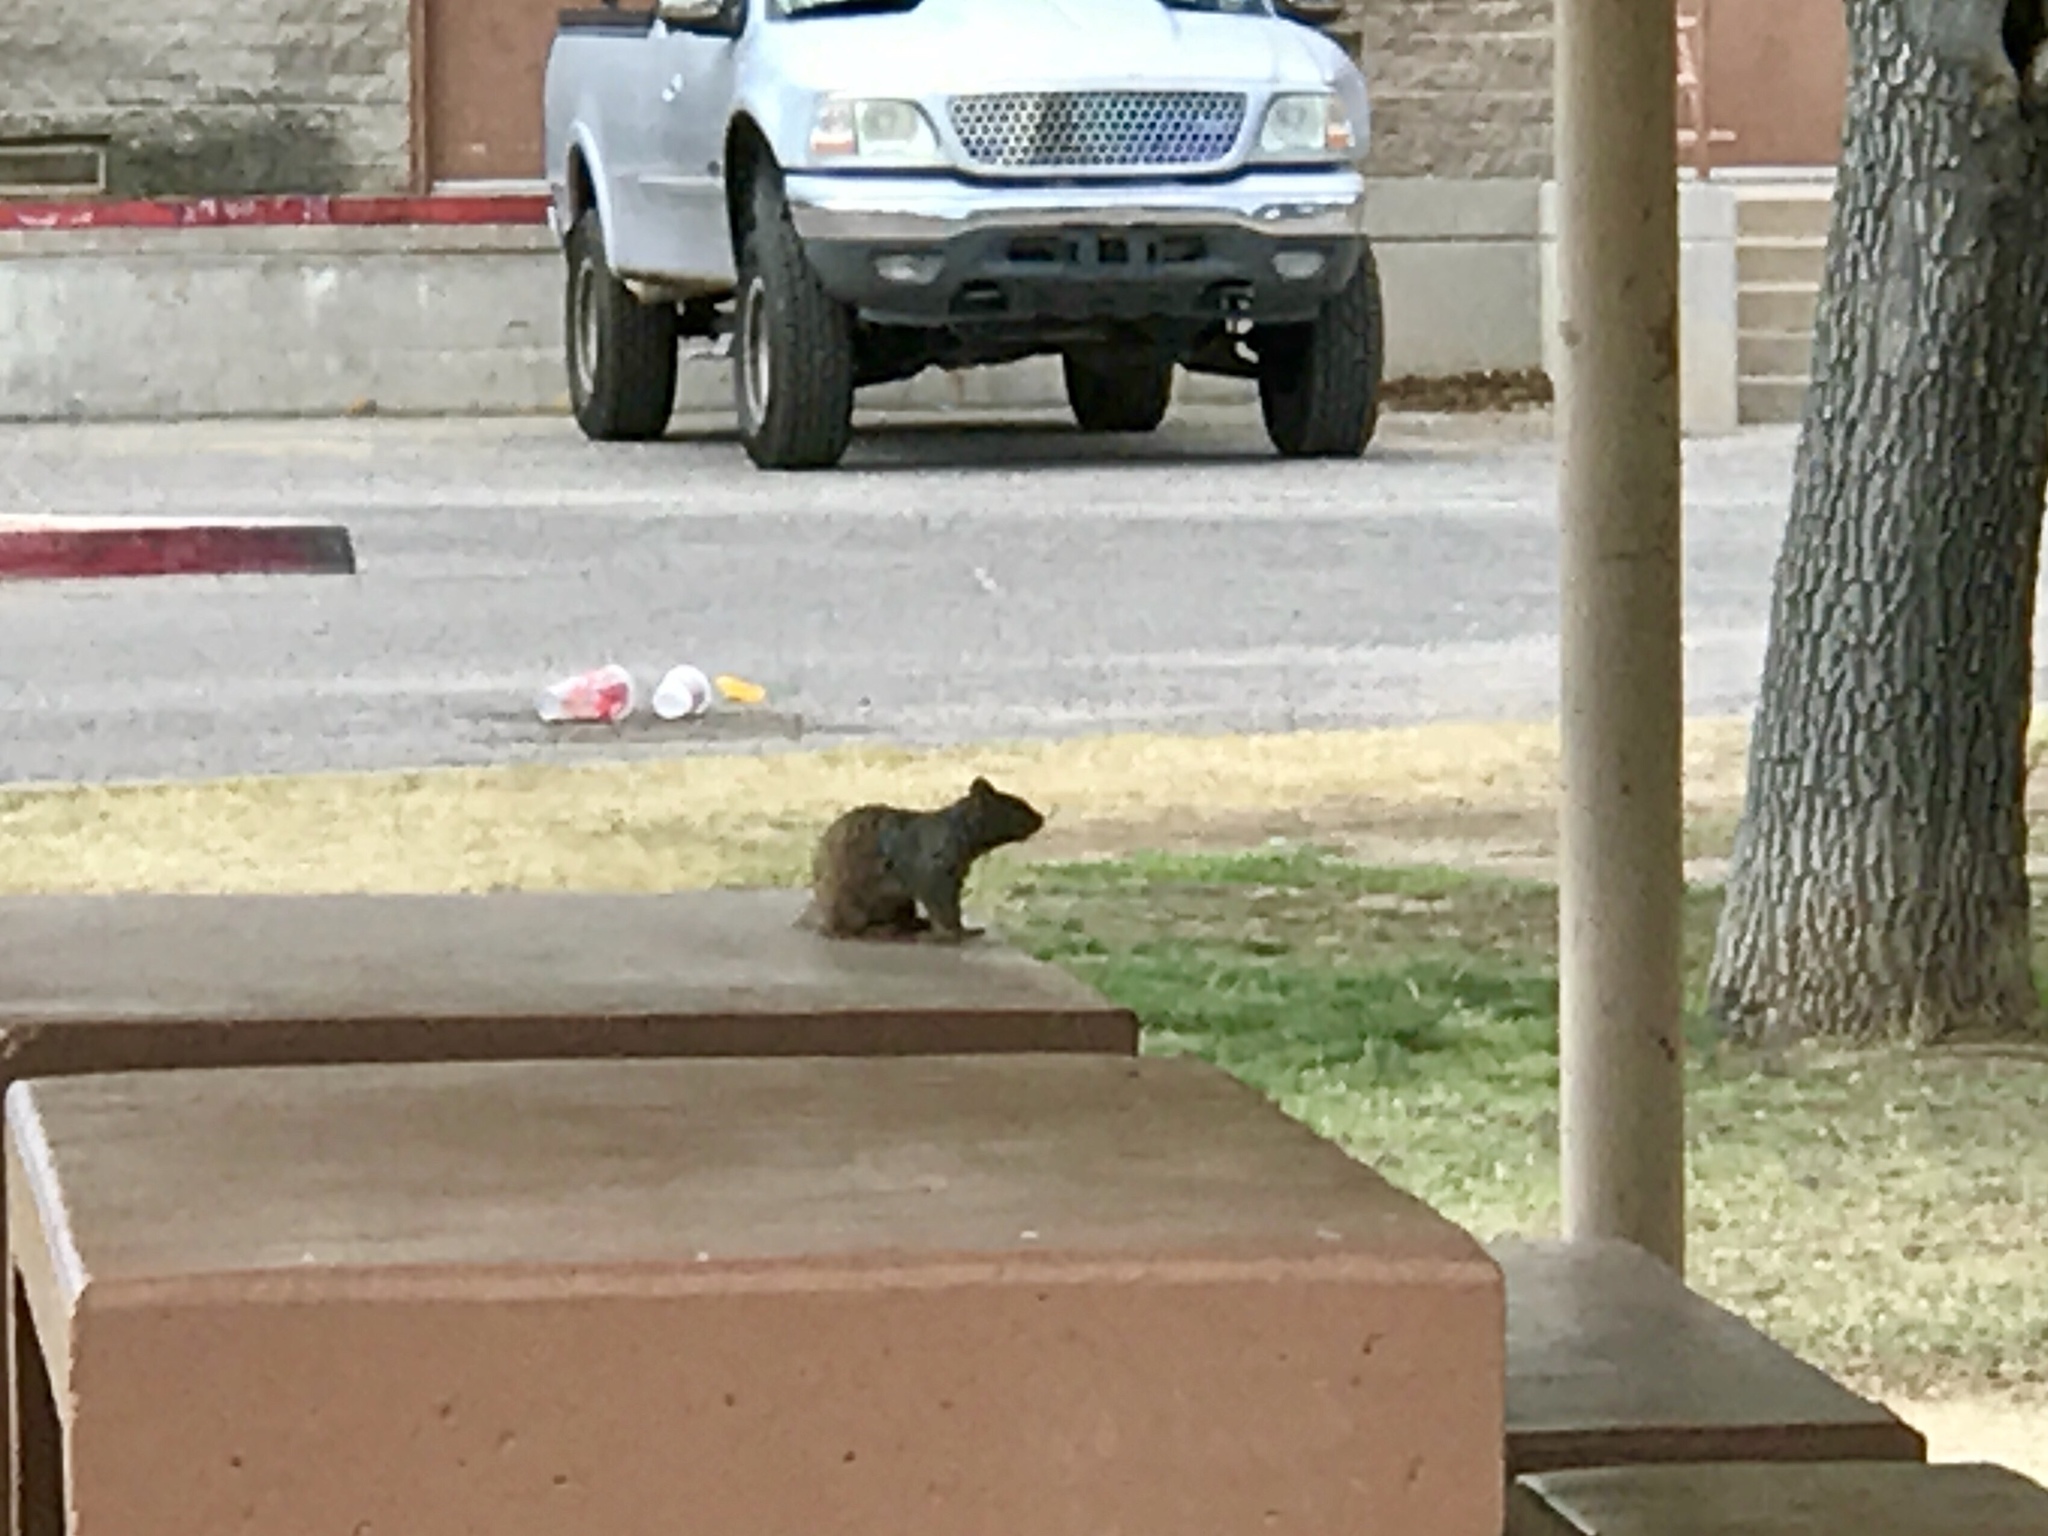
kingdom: Animalia
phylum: Chordata
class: Mammalia
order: Rodentia
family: Sciuridae
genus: Otospermophilus
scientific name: Otospermophilus variegatus
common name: Rock squirrel
